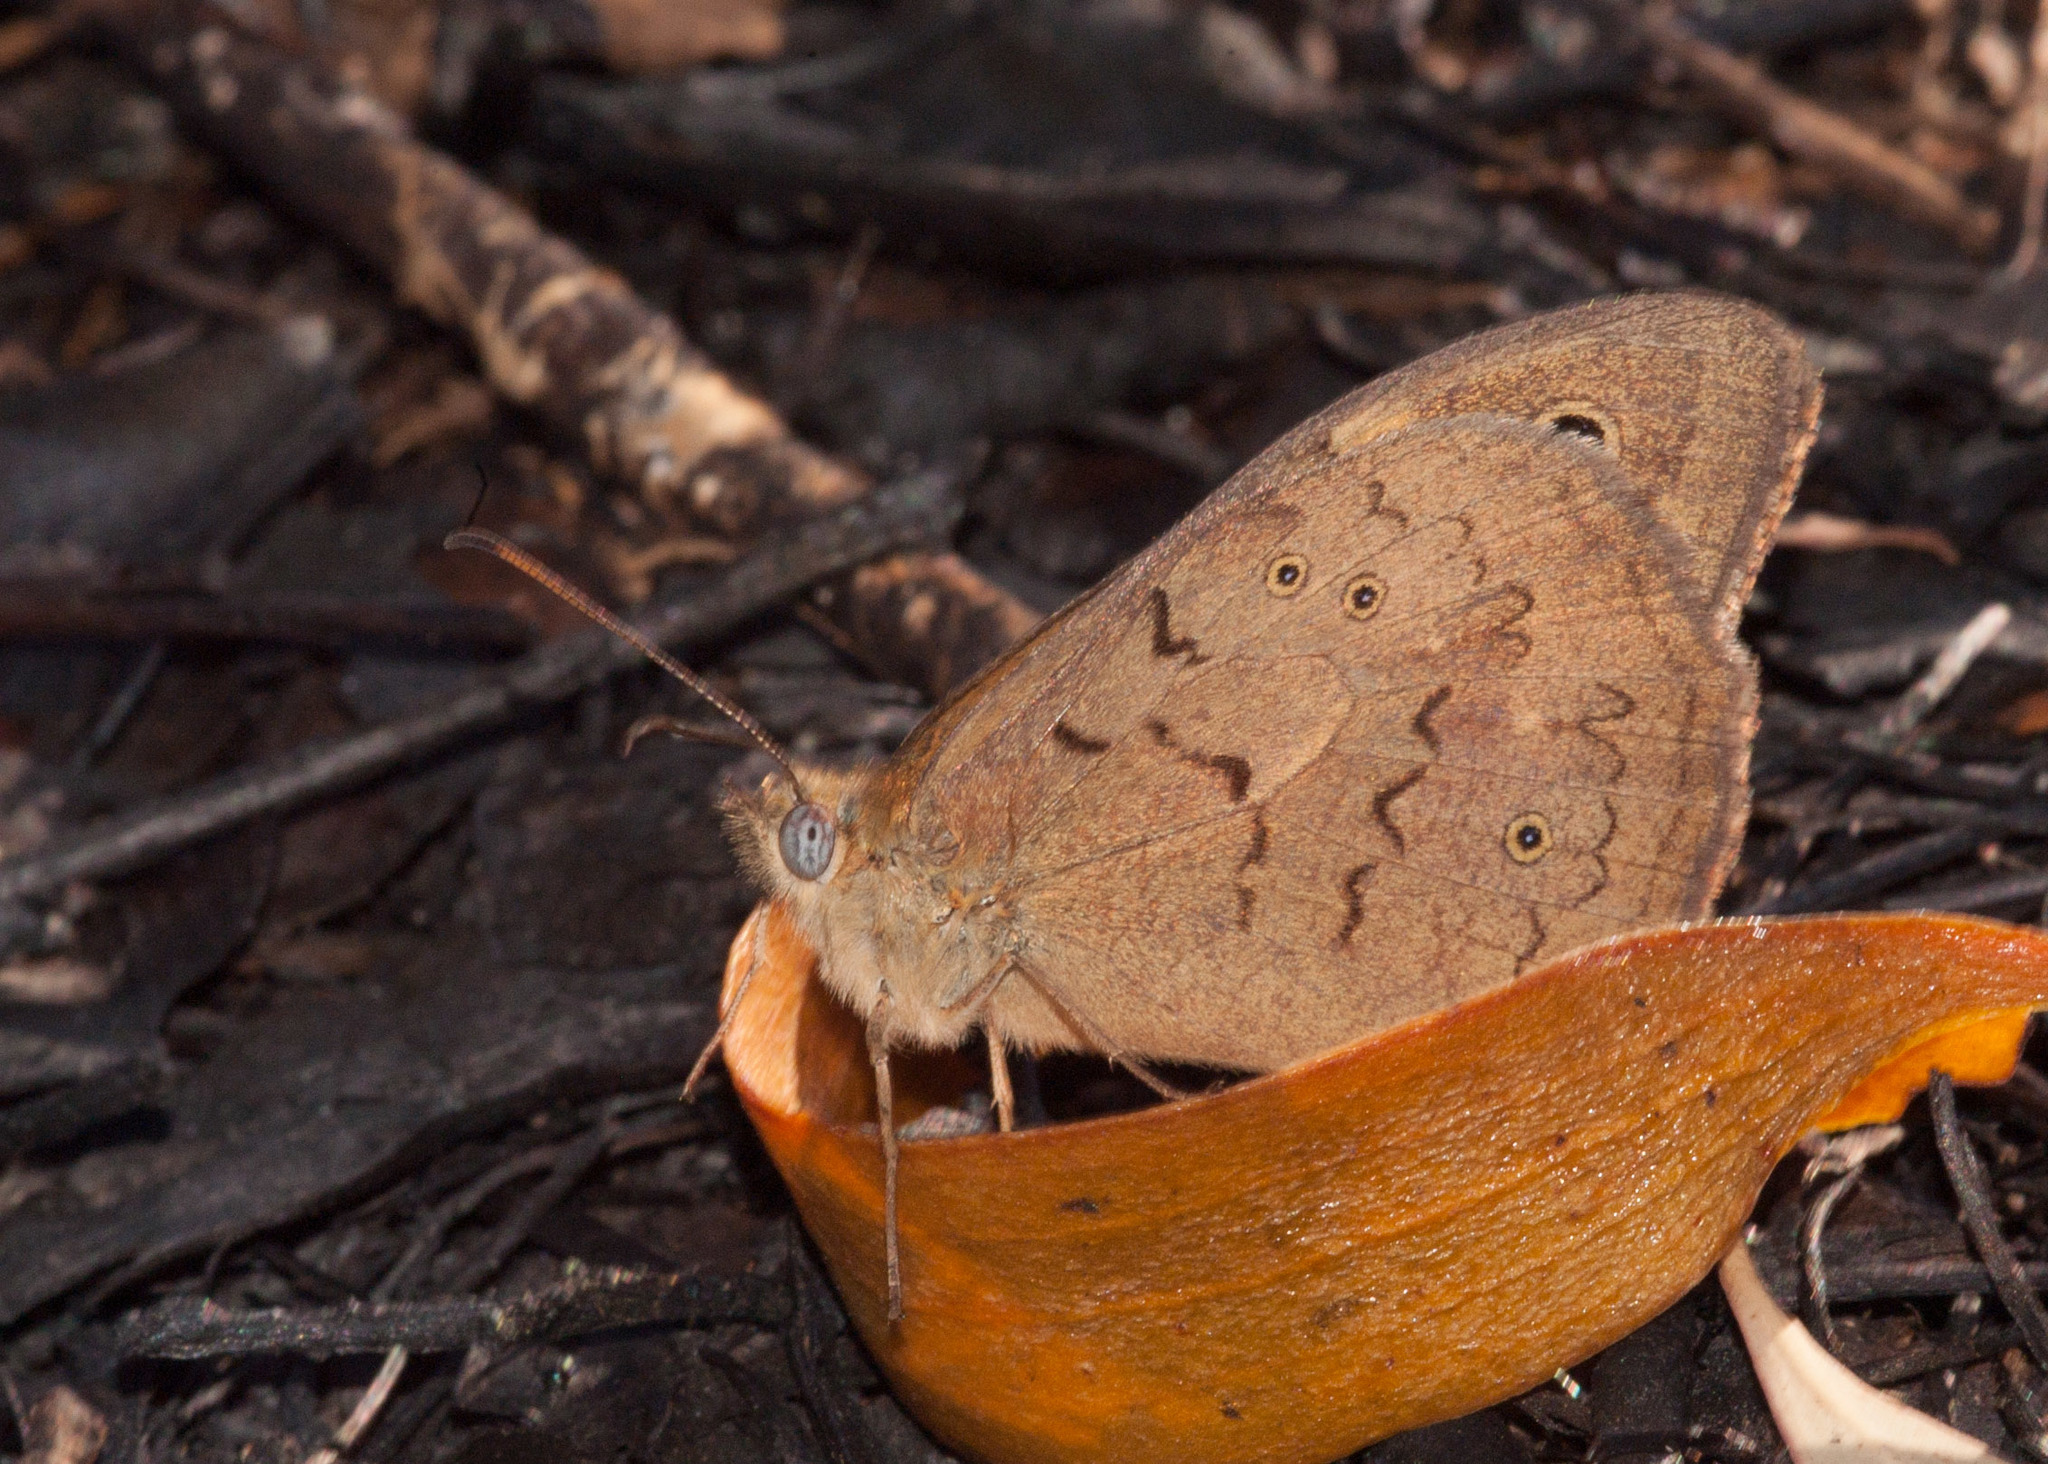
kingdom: Animalia
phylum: Arthropoda
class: Insecta
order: Lepidoptera
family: Nymphalidae
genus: Heteronympha
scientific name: Heteronympha merope
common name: Common brown
